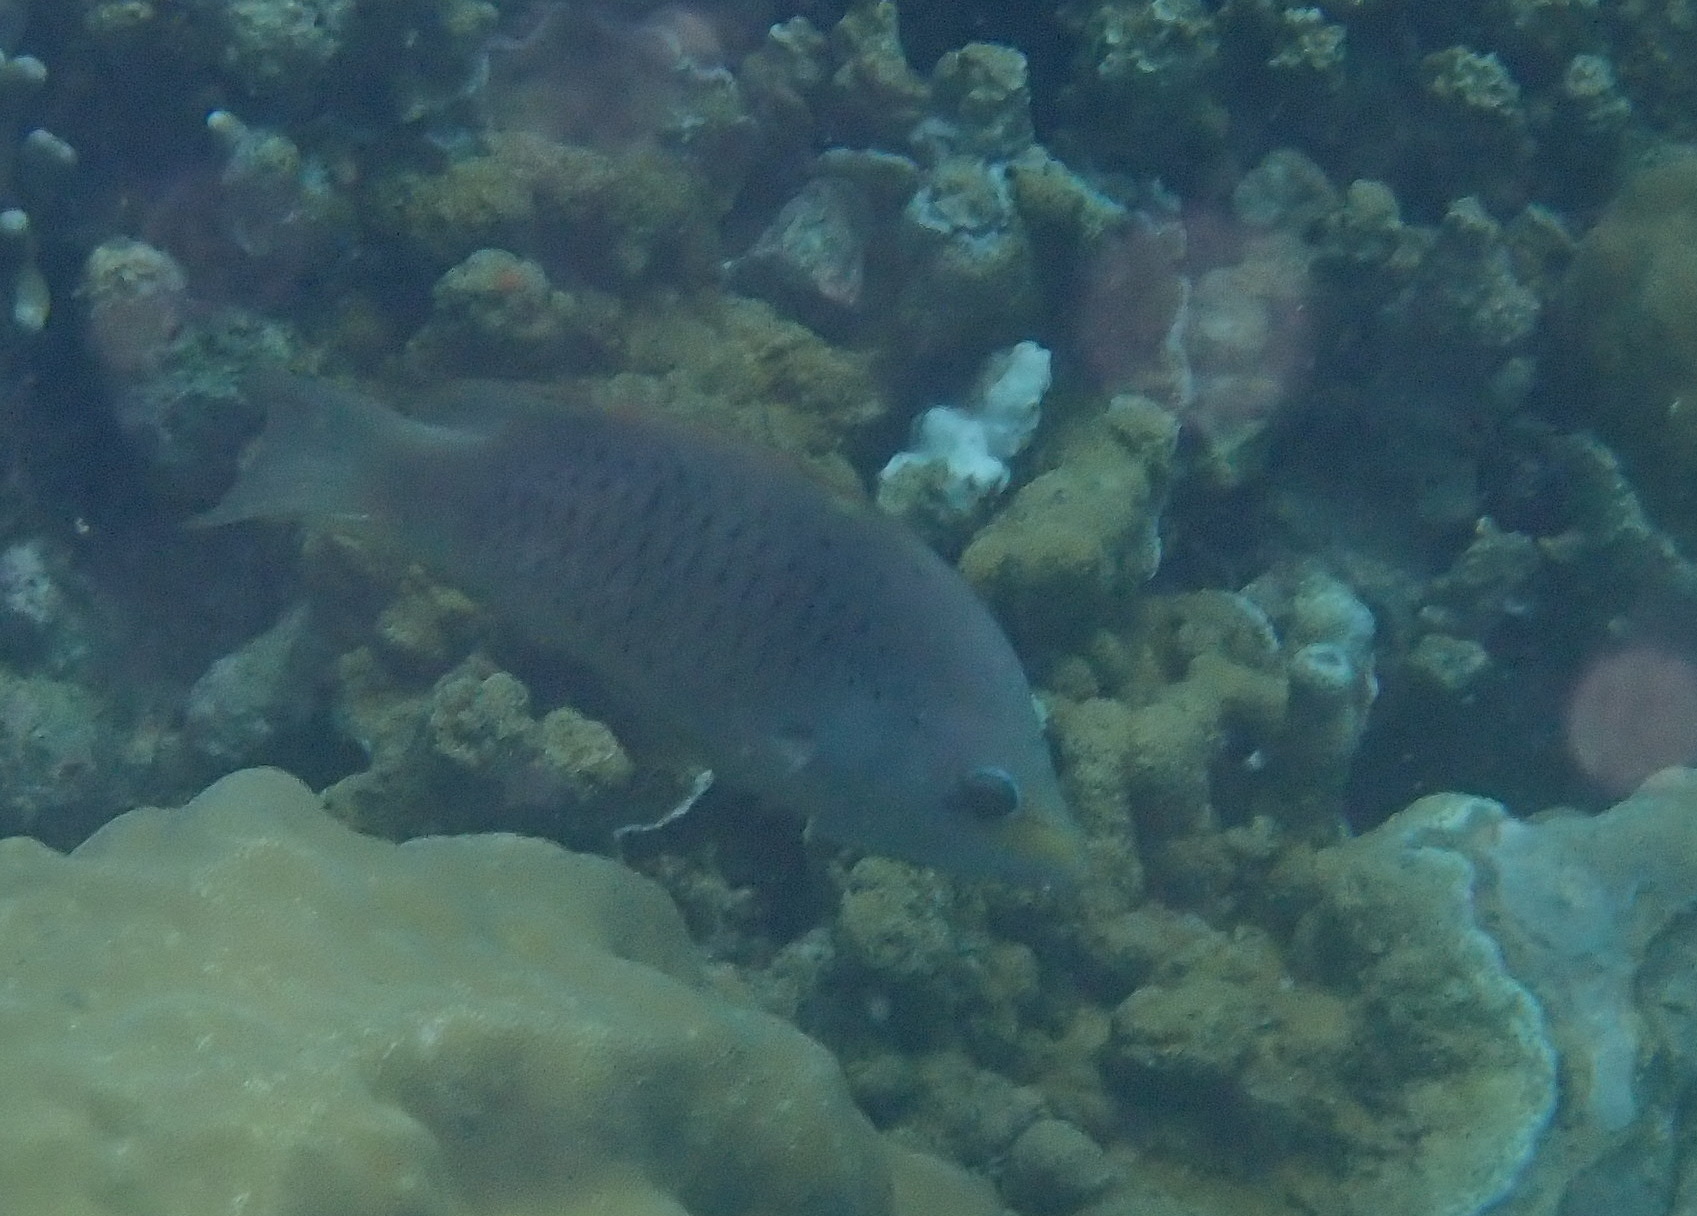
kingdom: Animalia
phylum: Chordata
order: Perciformes
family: Labridae
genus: Epibulus
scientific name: Epibulus insidiator
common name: Slingjaw wrasse
